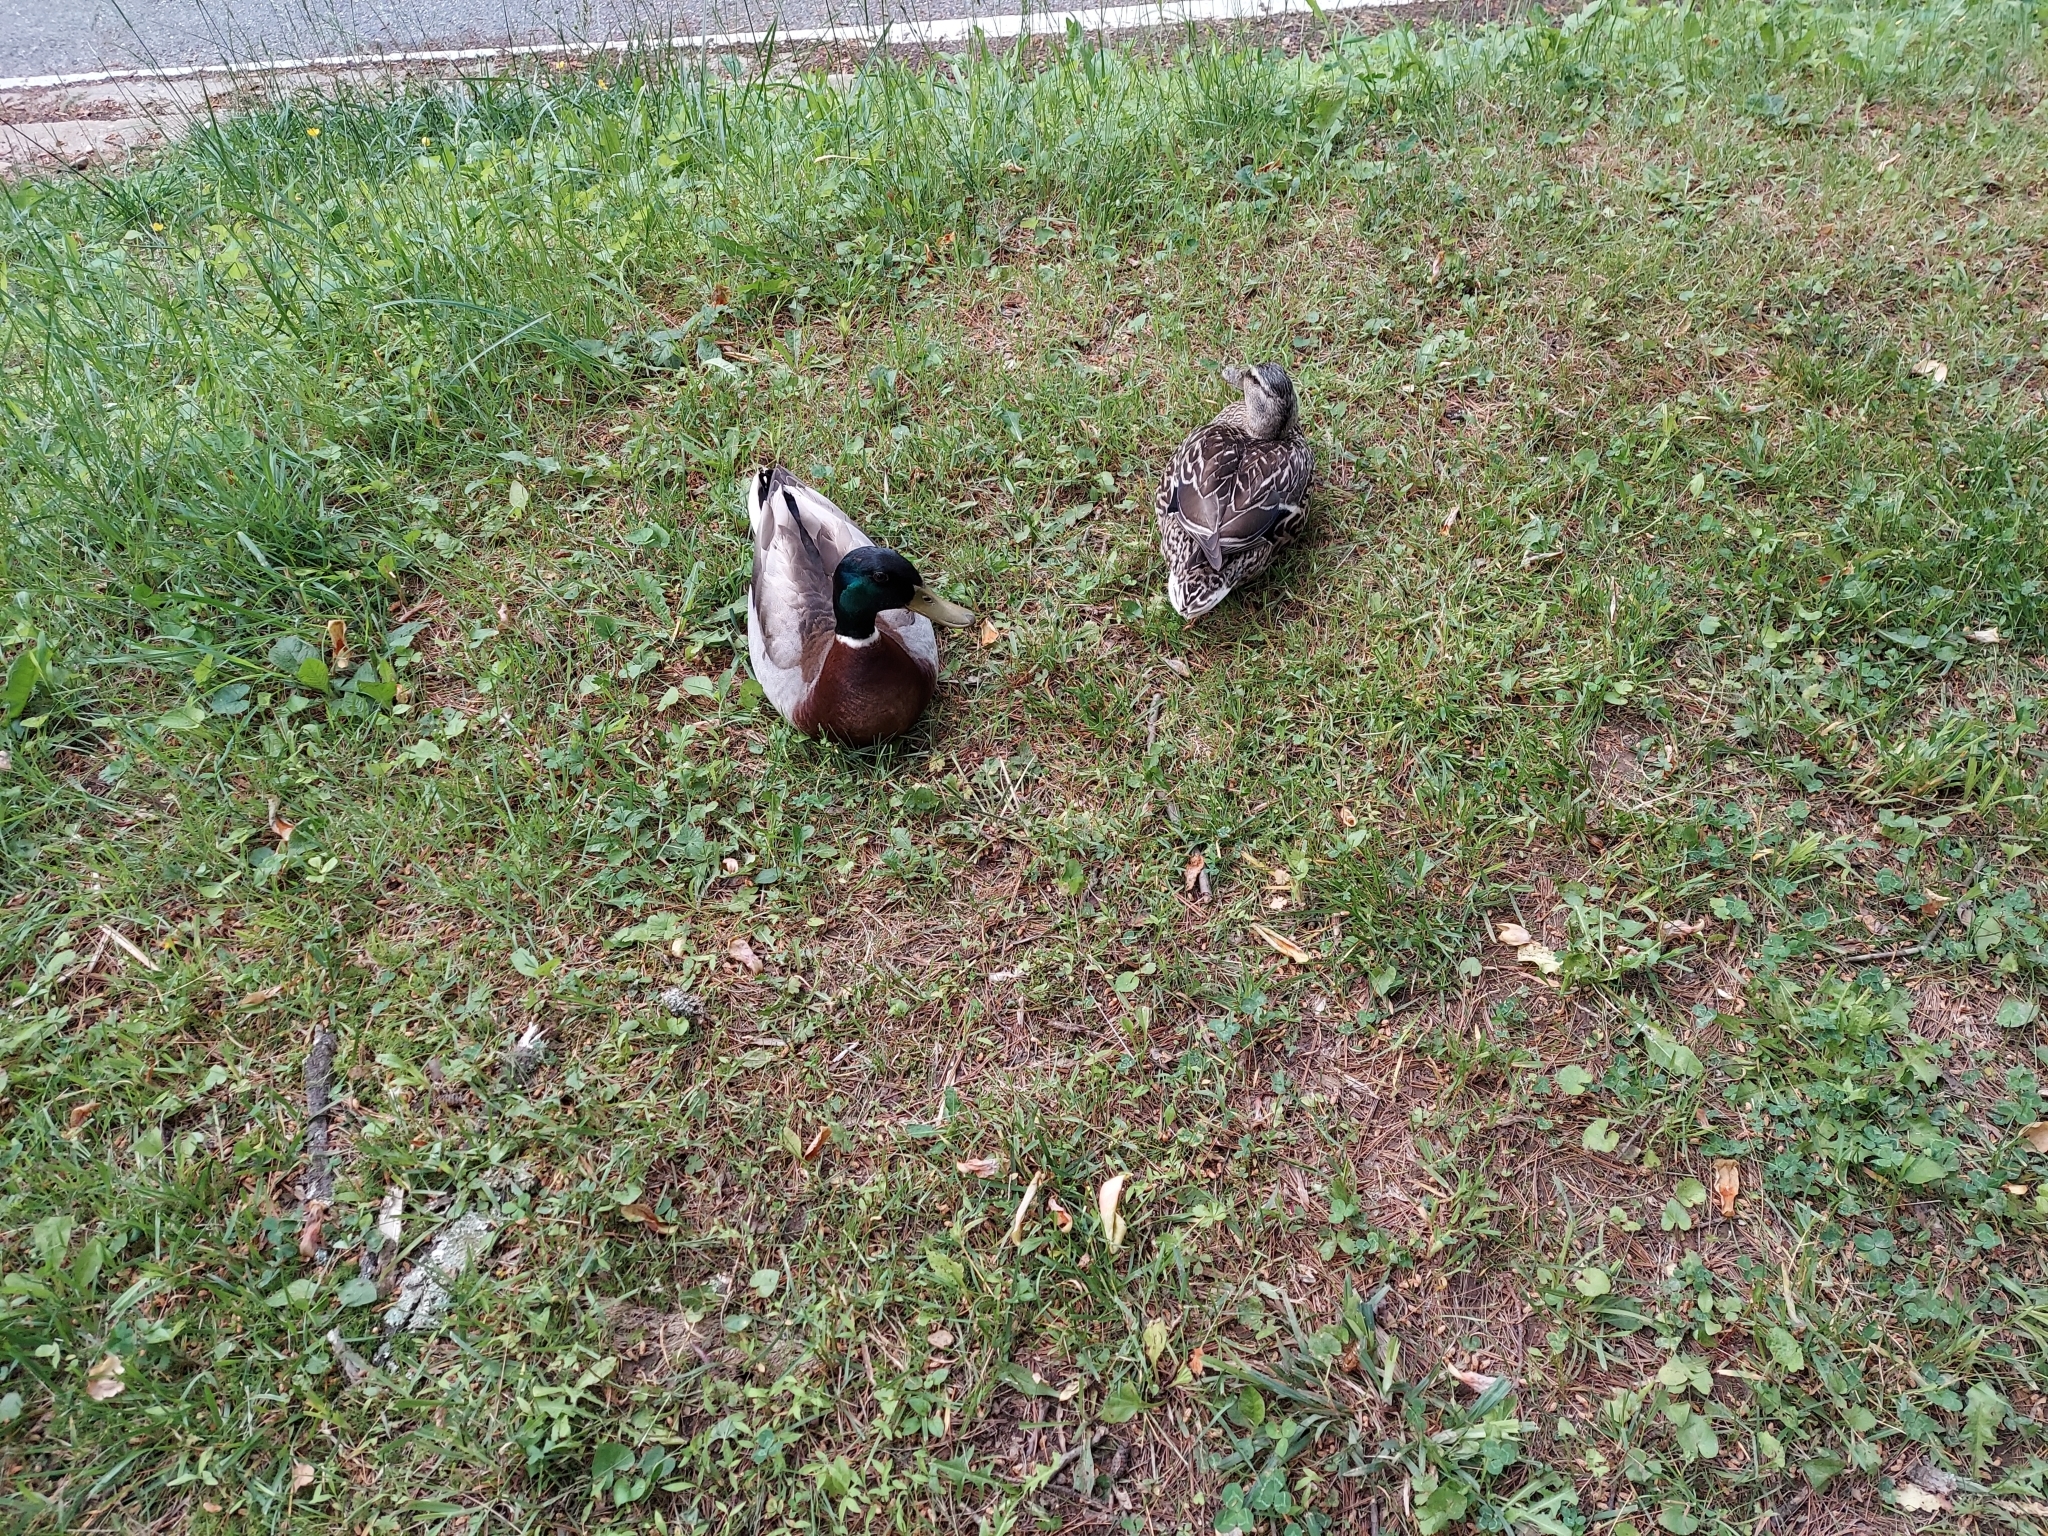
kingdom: Animalia
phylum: Chordata
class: Aves
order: Anseriformes
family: Anatidae
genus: Anas
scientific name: Anas platyrhynchos
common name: Mallard
